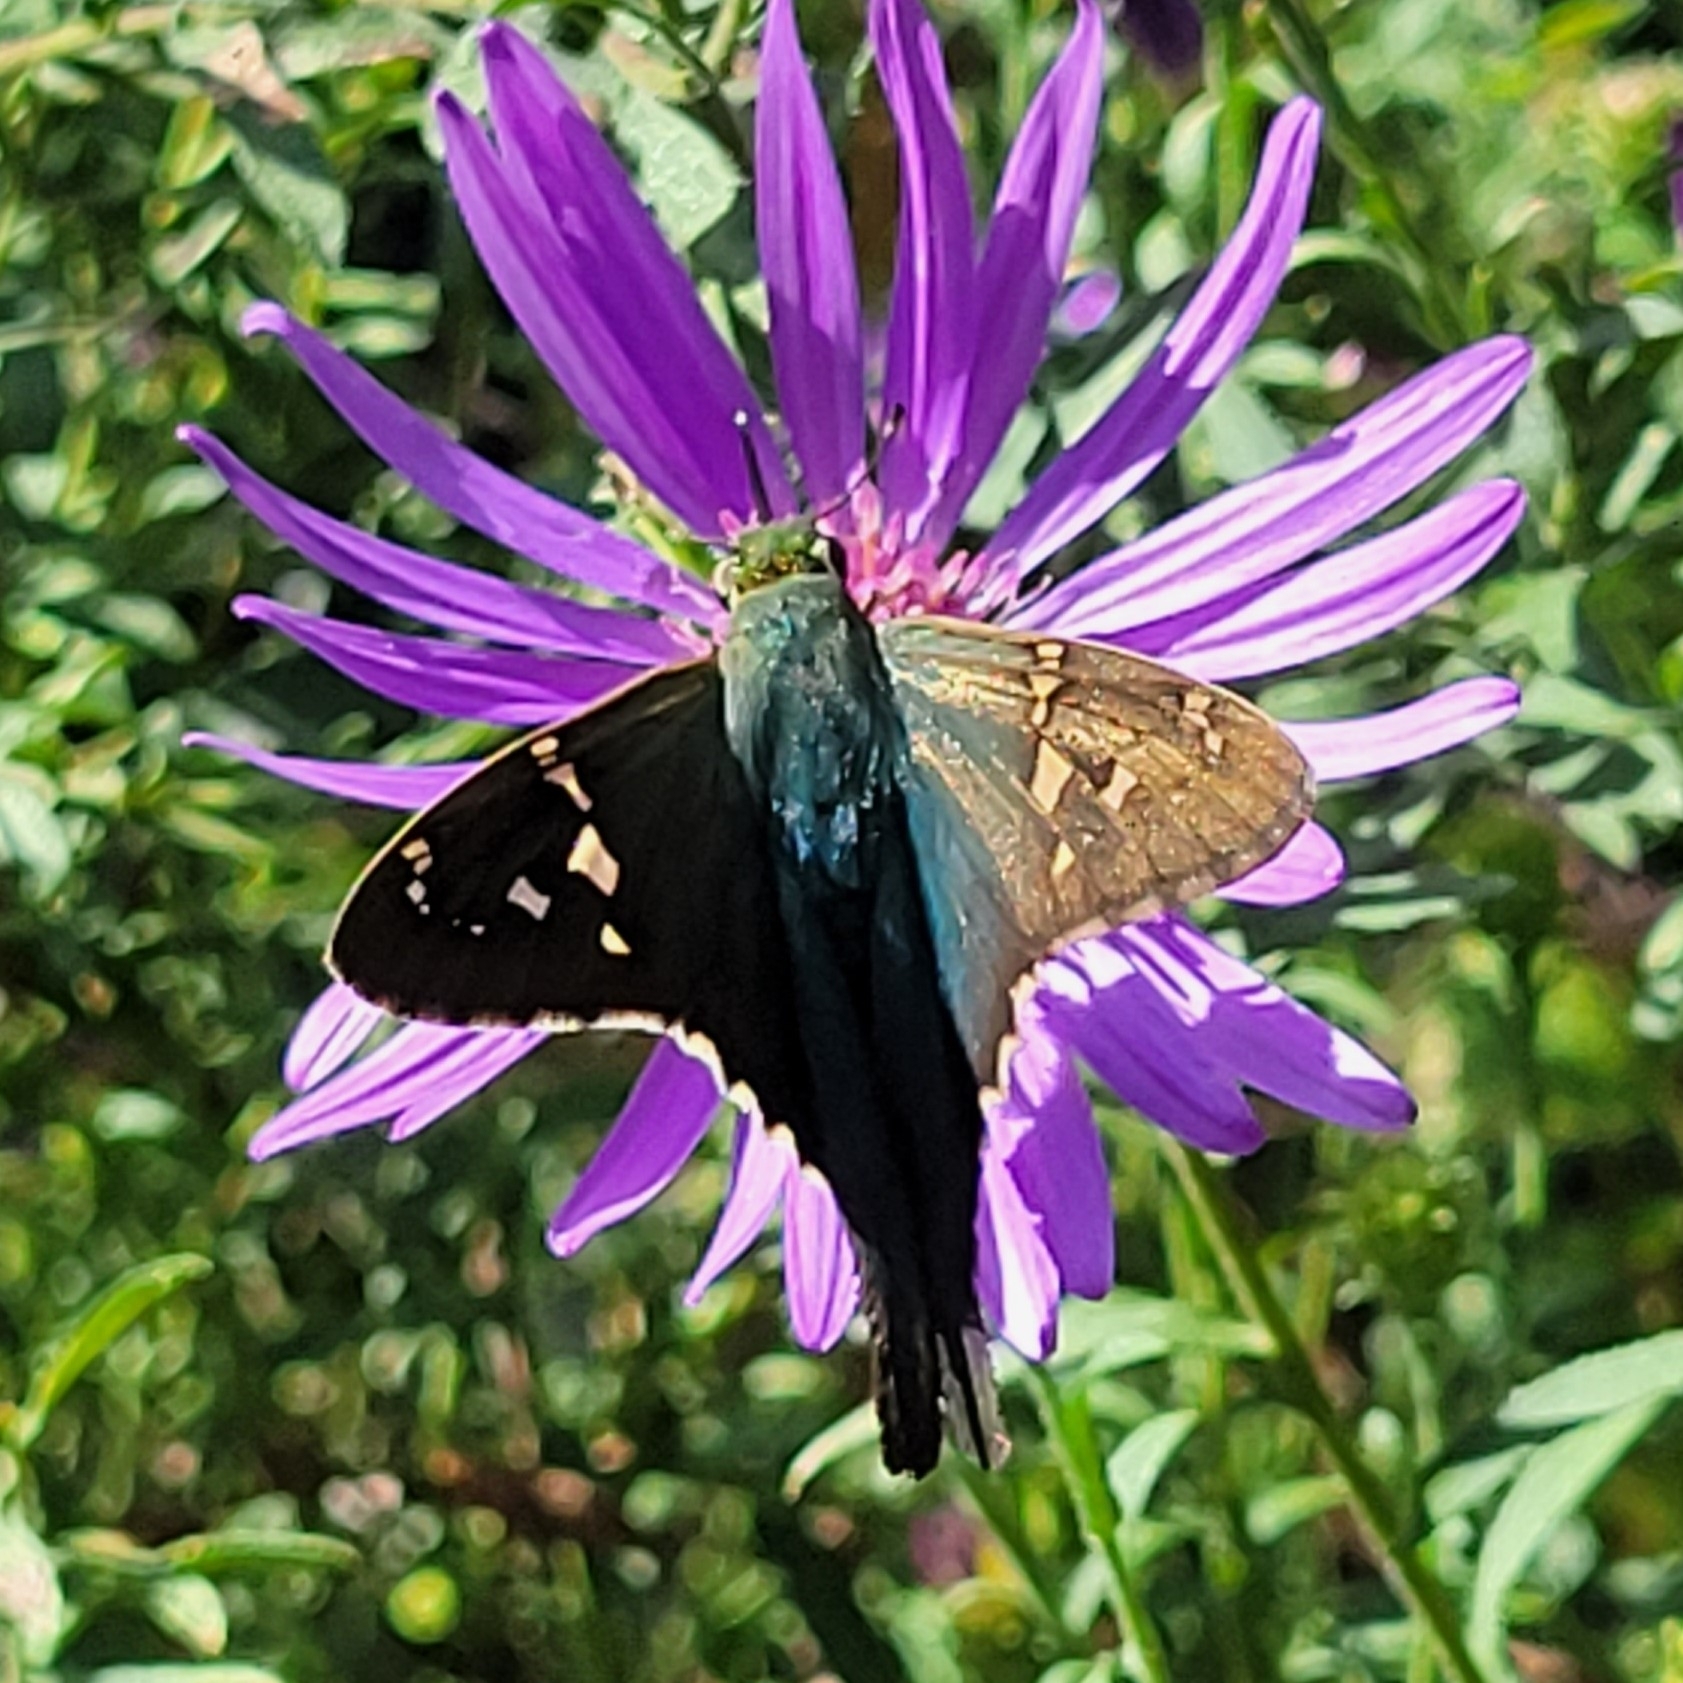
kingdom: Animalia
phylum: Arthropoda
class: Insecta
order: Lepidoptera
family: Hesperiidae
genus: Urbanus
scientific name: Urbanus proteus
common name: Long-tailed skipper
